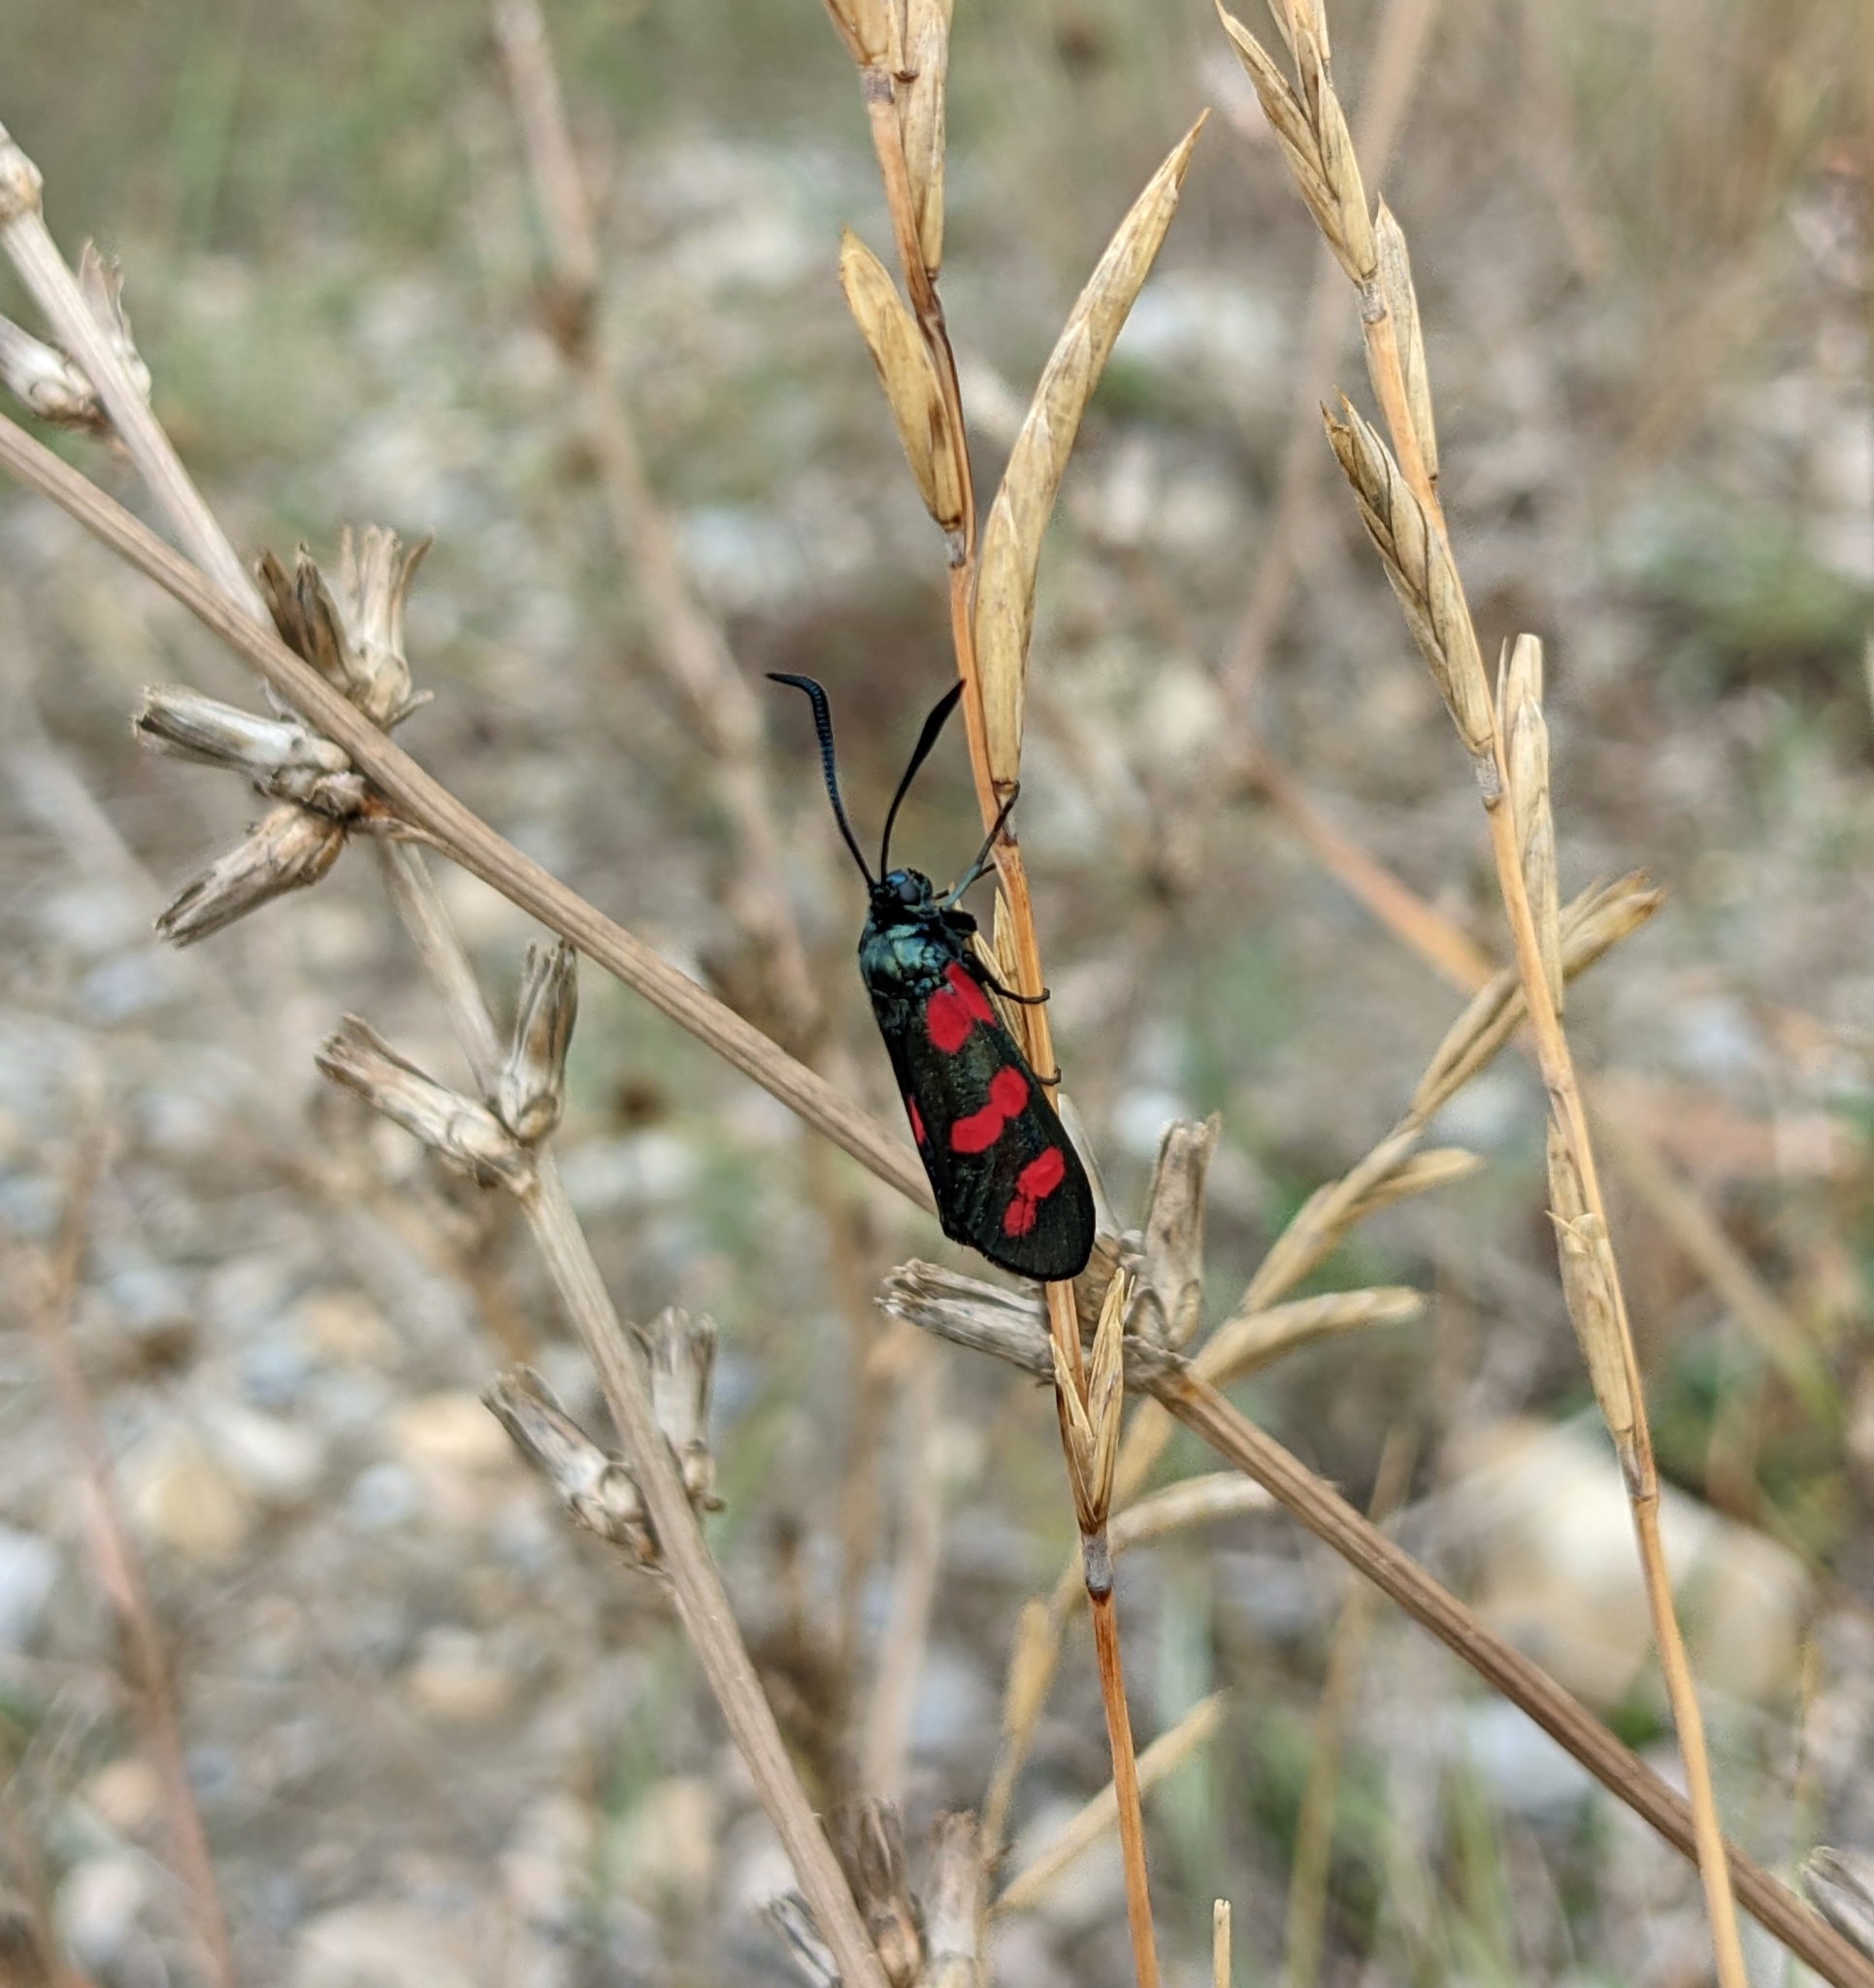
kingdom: Animalia
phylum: Arthropoda
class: Insecta
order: Lepidoptera
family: Zygaenidae
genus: Zygaena
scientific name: Zygaena filipendulae
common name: Six-spot burnet
